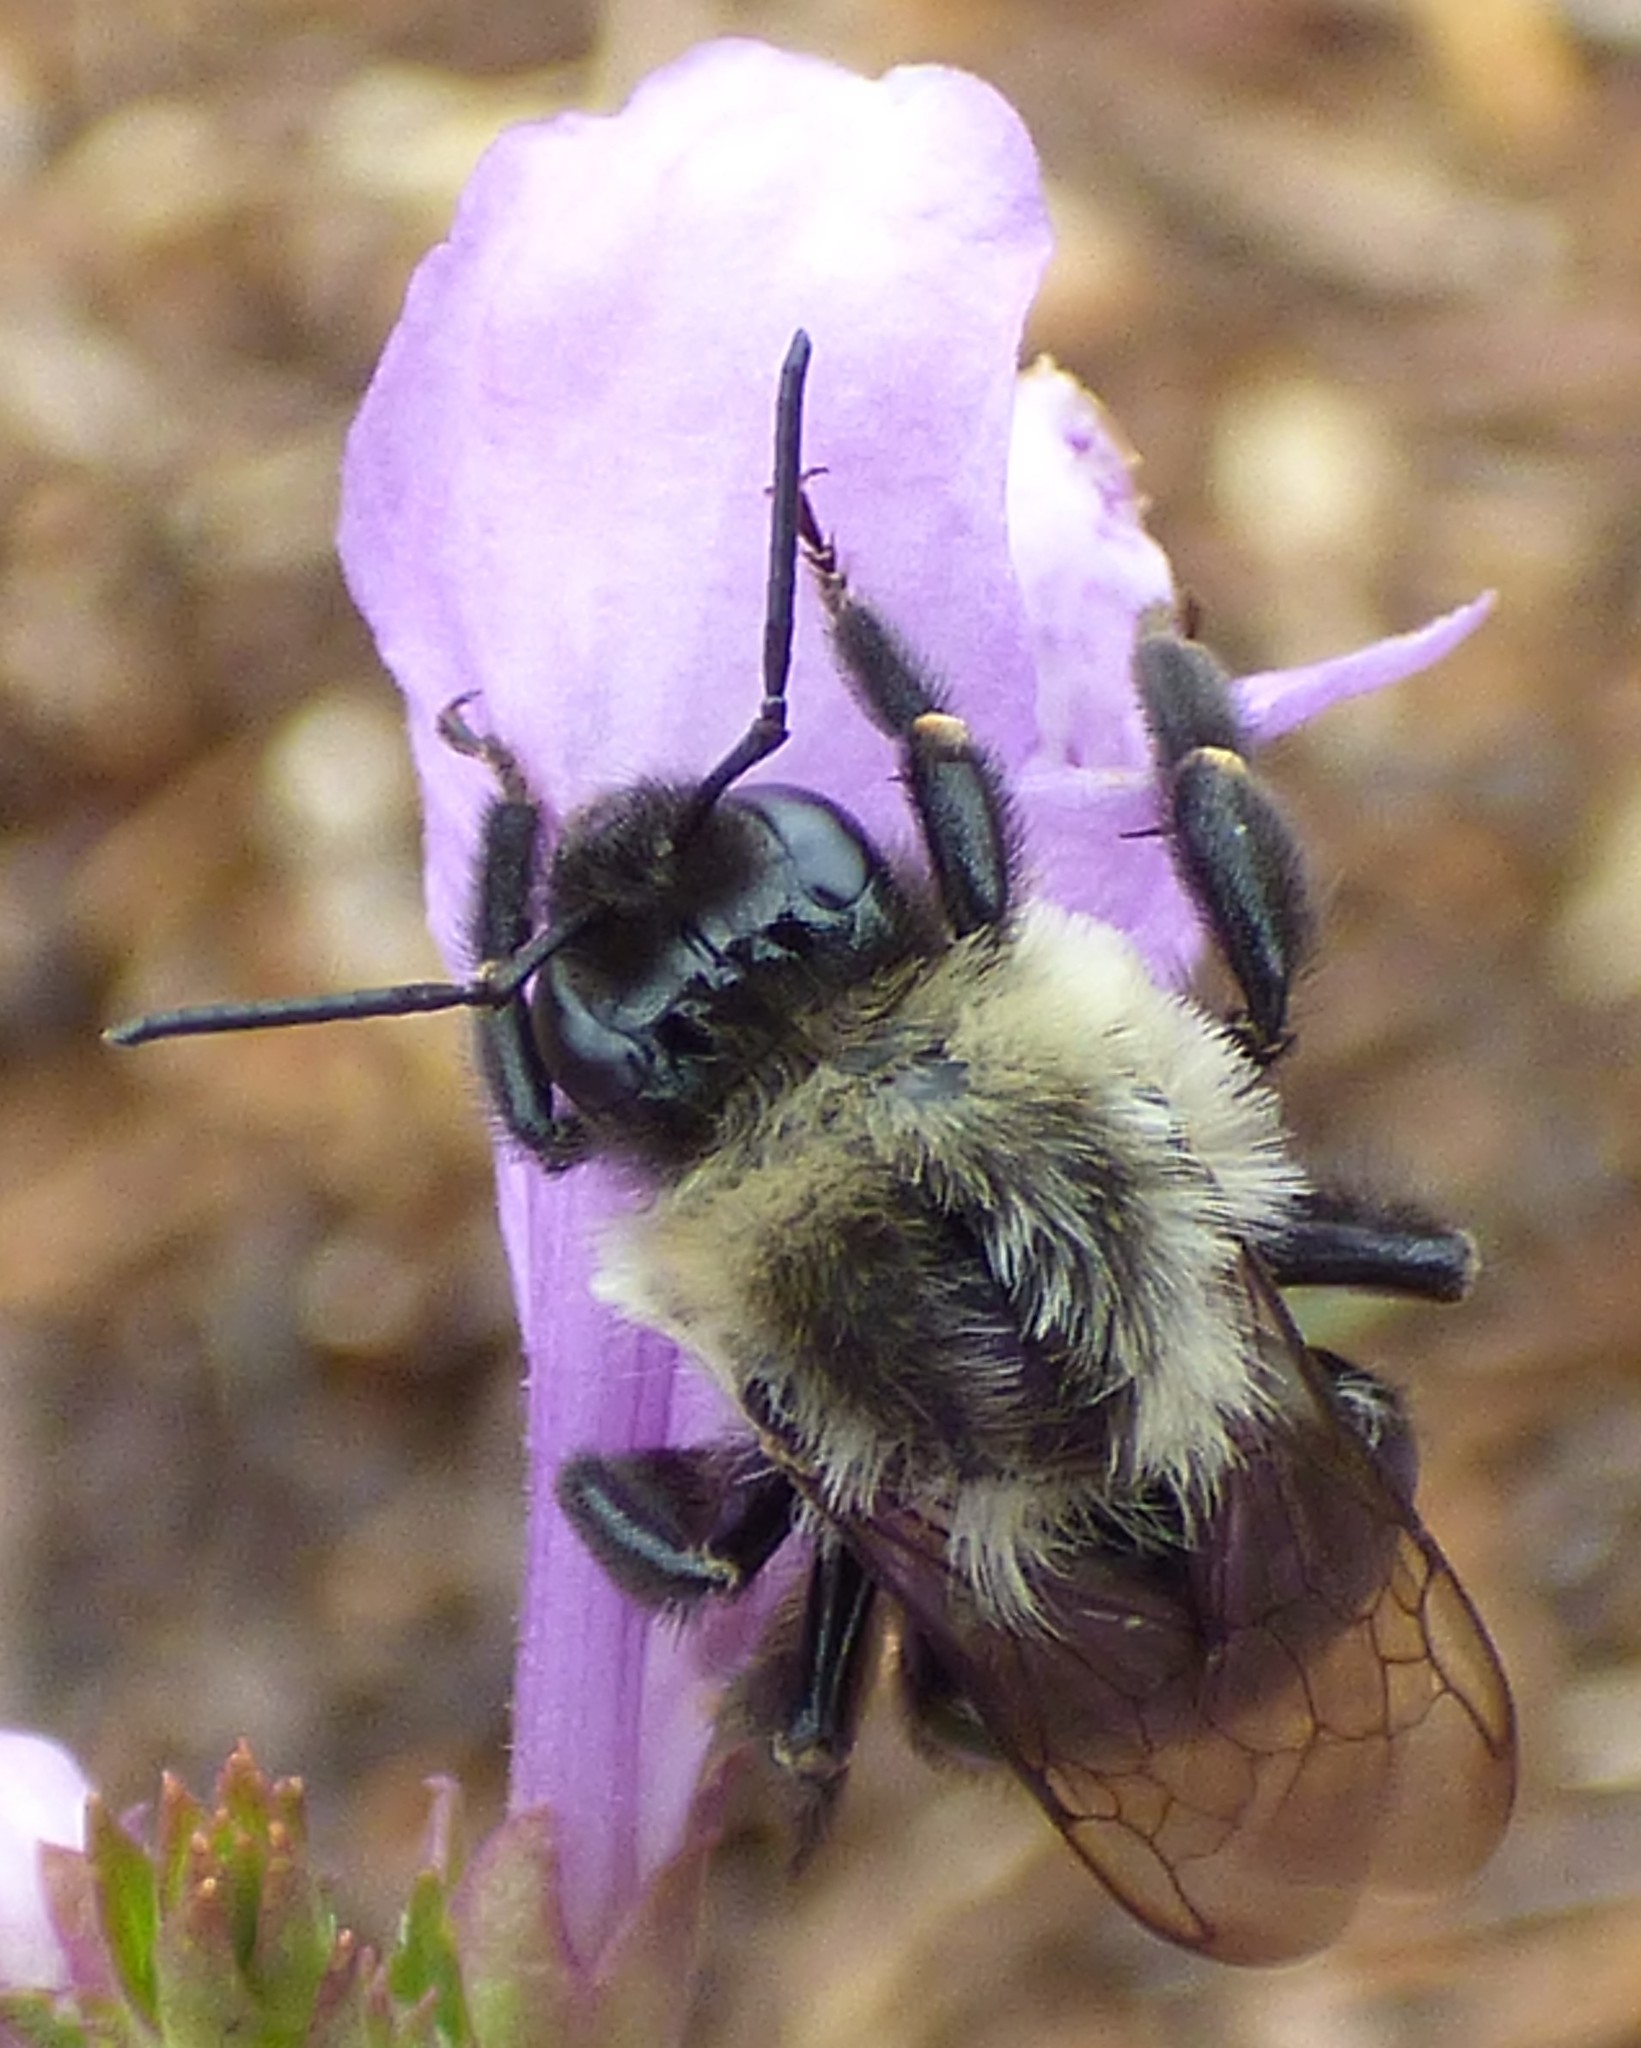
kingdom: Animalia
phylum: Arthropoda
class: Insecta
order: Hymenoptera
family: Apidae
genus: Bombus
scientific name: Bombus impatiens
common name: Common eastern bumble bee
